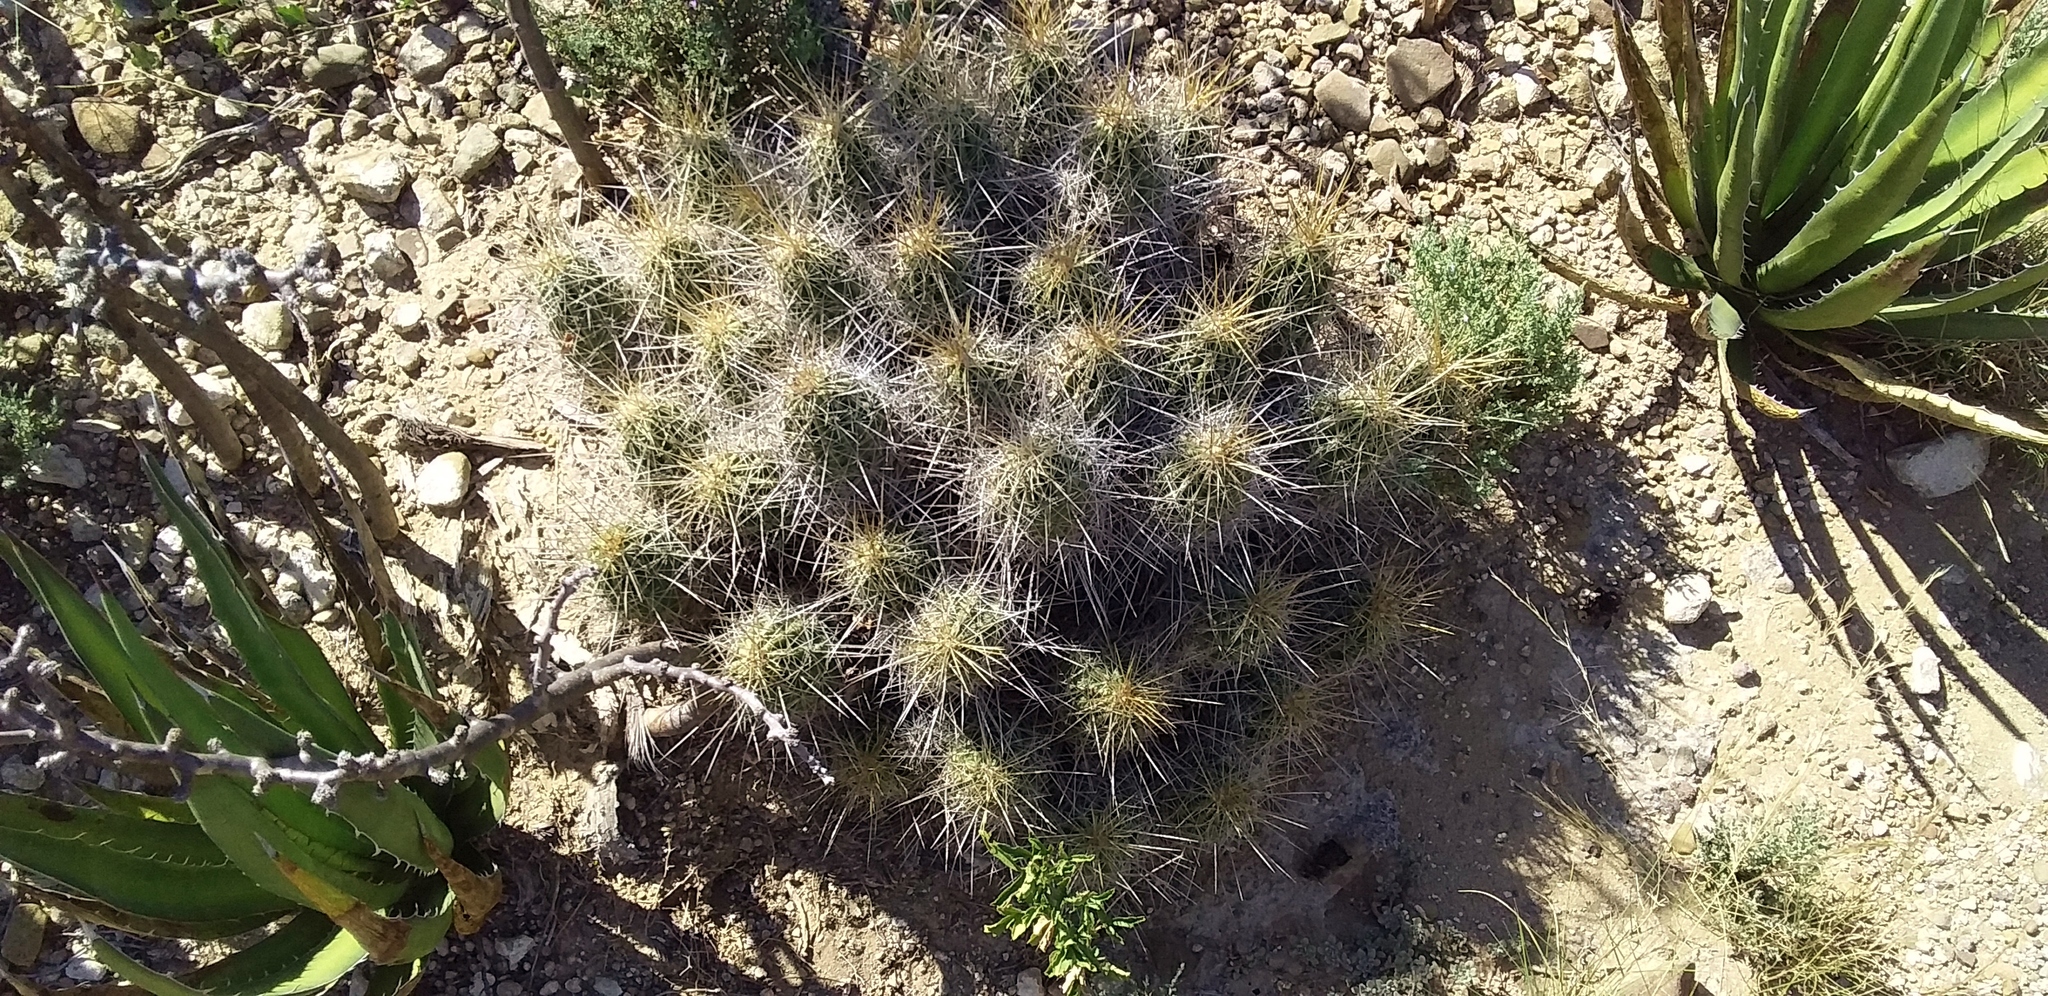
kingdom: Plantae
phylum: Tracheophyta
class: Magnoliopsida
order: Caryophyllales
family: Cactaceae
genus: Echinocereus
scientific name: Echinocereus stramineus
